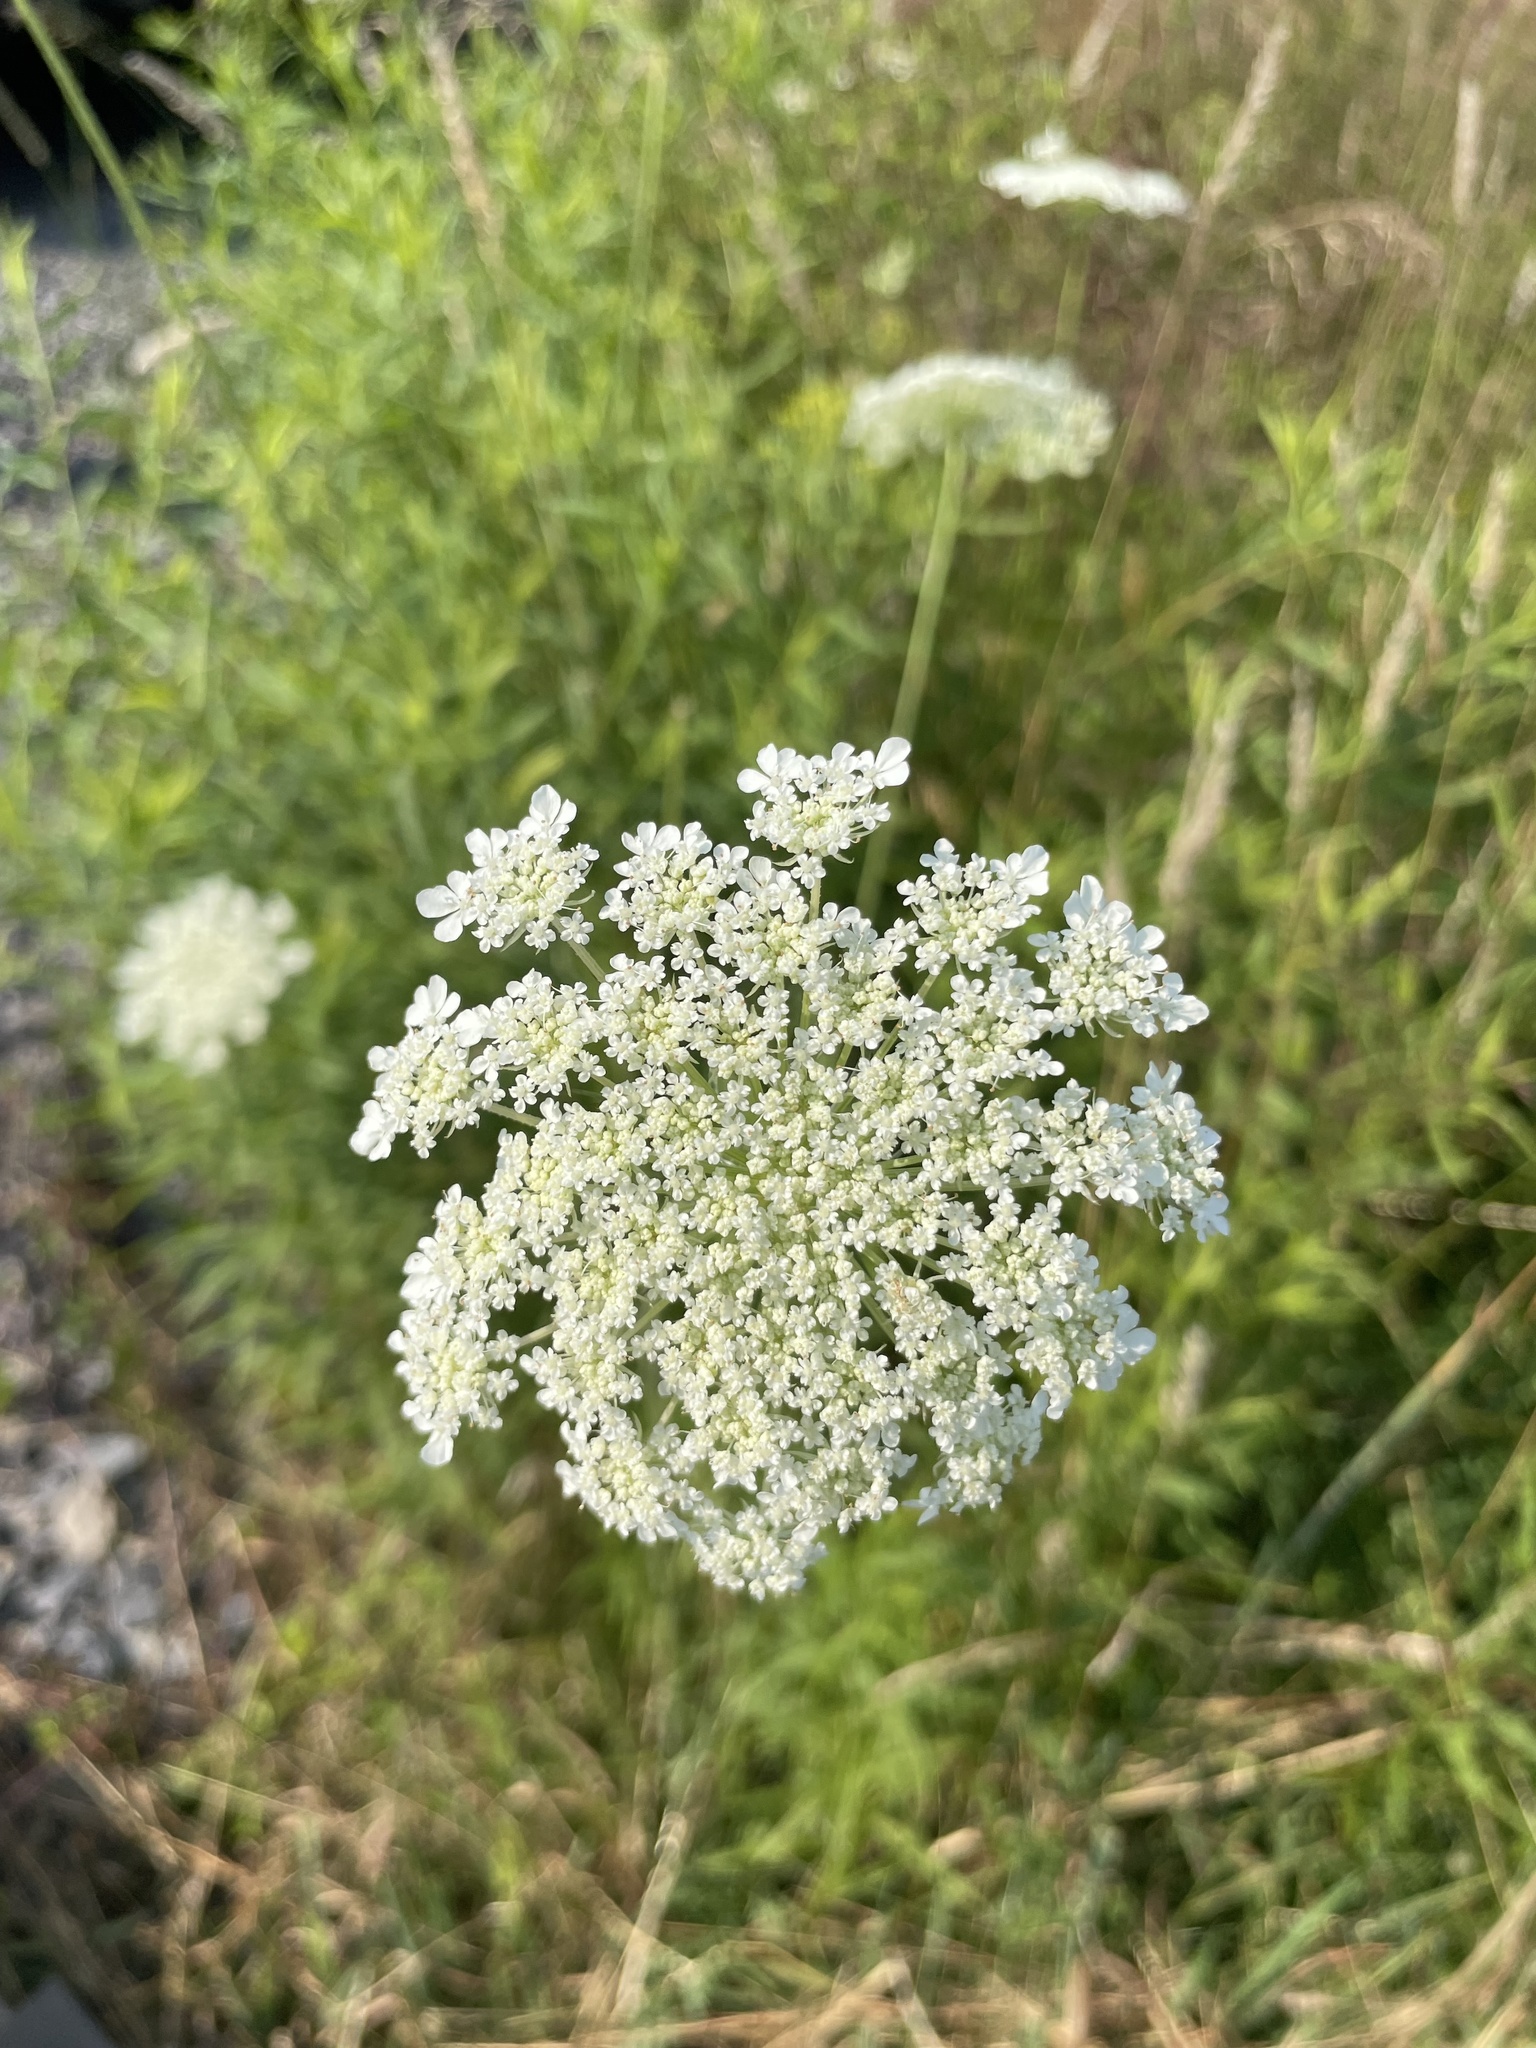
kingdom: Plantae
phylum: Tracheophyta
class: Magnoliopsida
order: Apiales
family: Apiaceae
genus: Daucus
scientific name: Daucus carota
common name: Wild carrot
